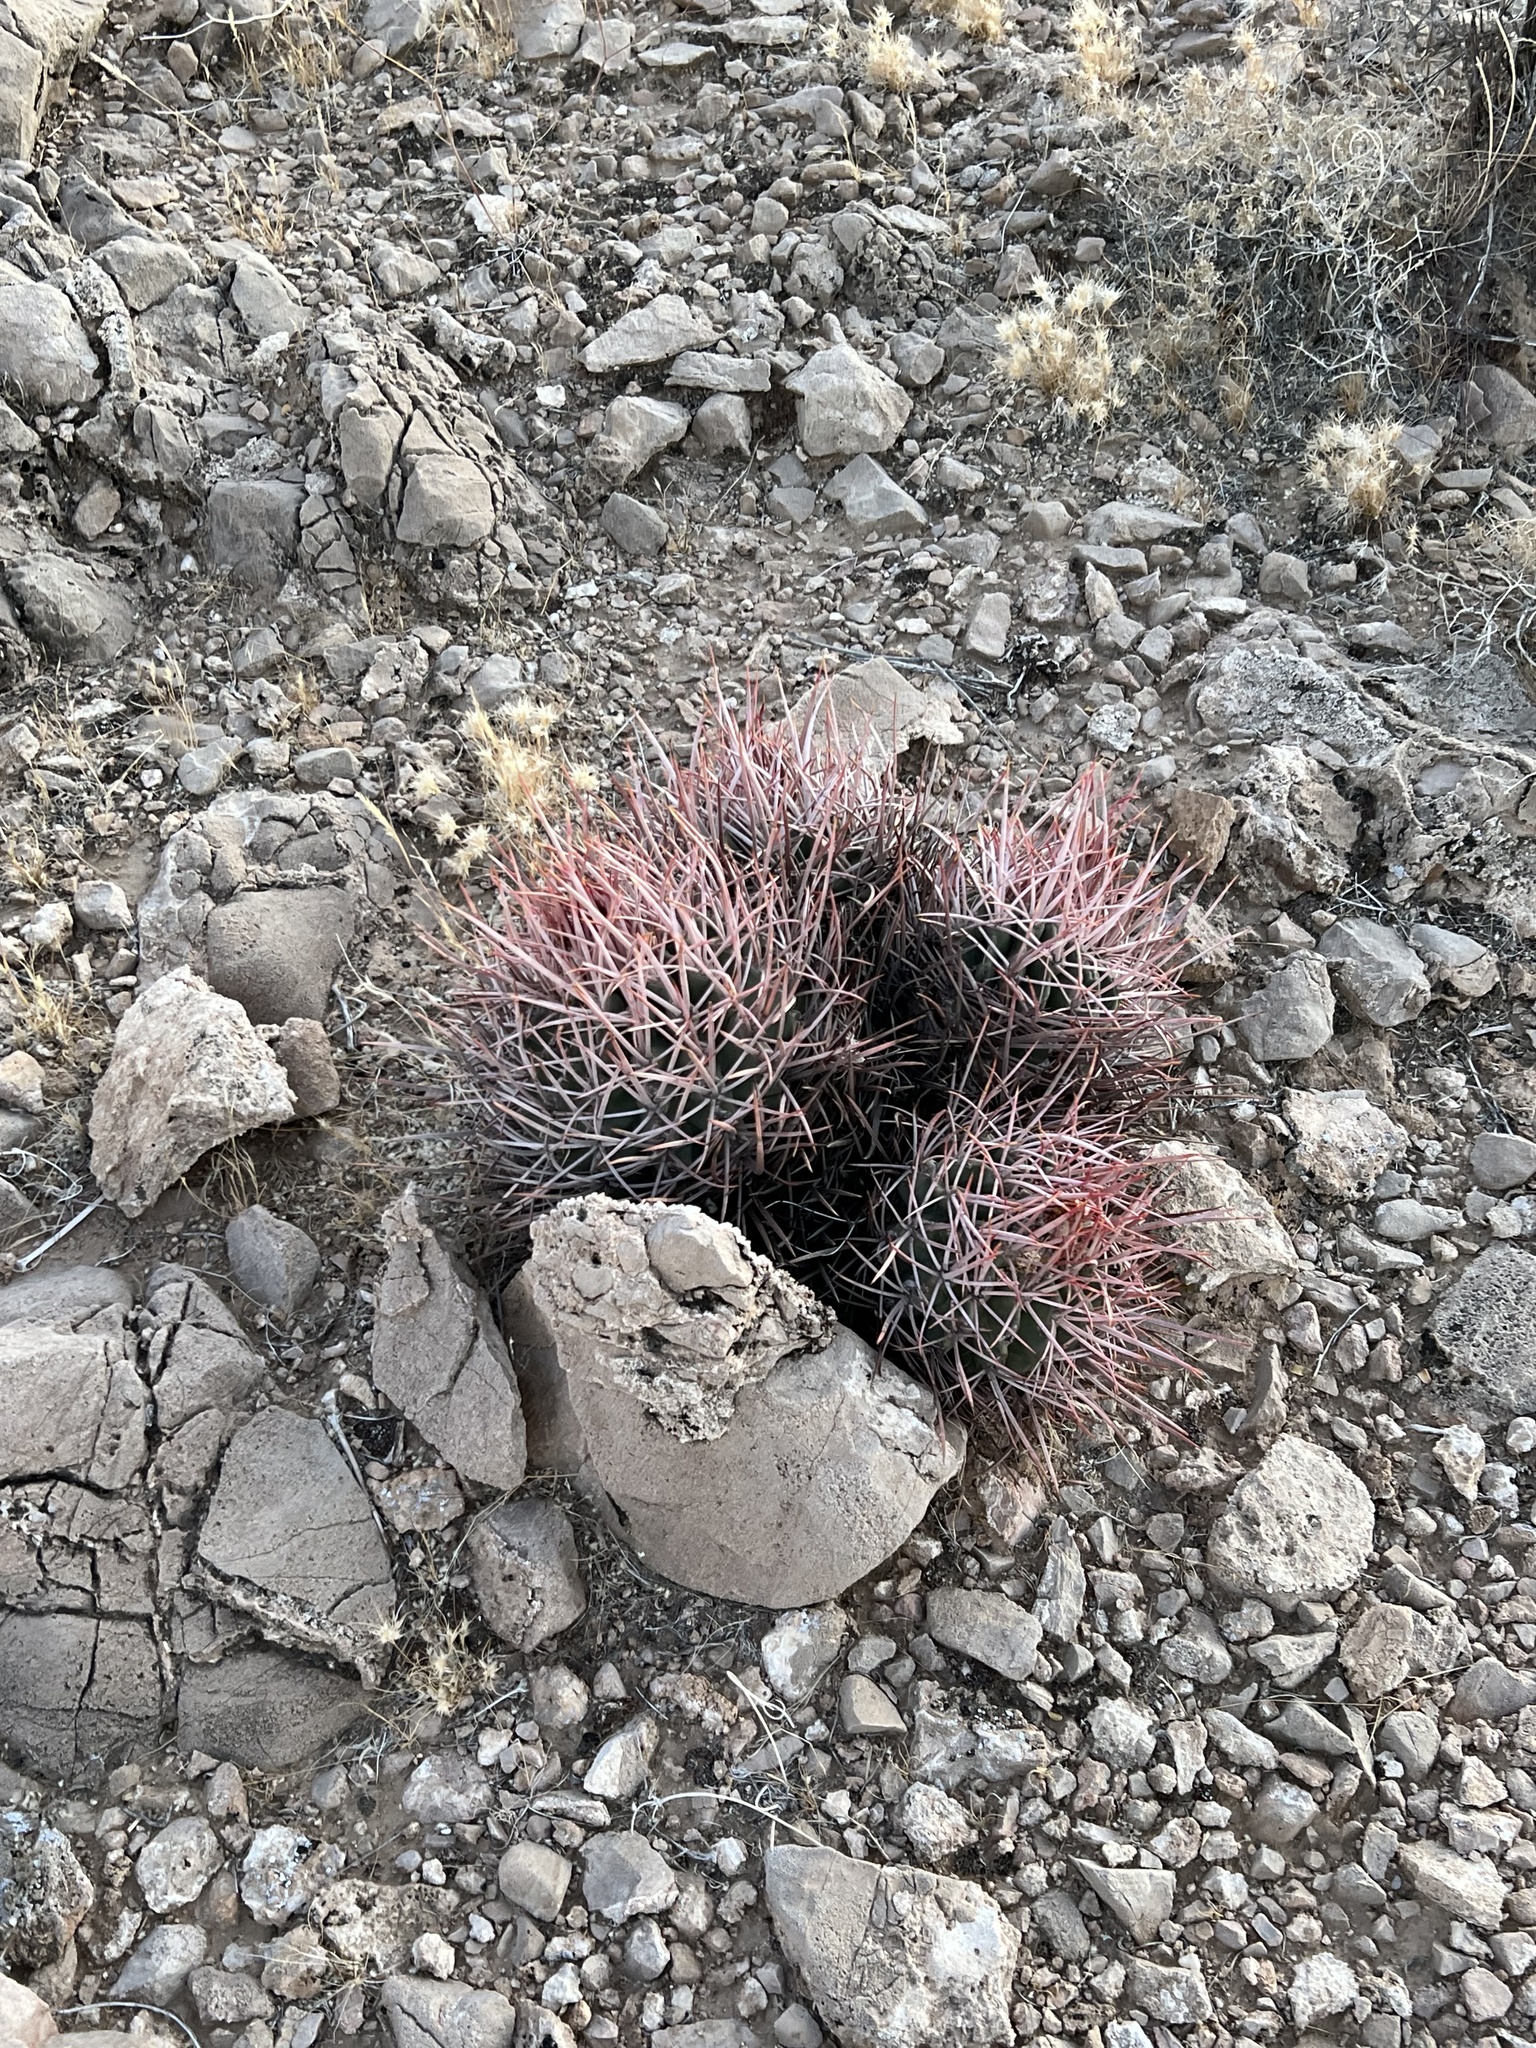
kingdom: Plantae
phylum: Tracheophyta
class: Magnoliopsida
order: Caryophyllales
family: Cactaceae
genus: Echinocactus
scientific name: Echinocactus polycephalus
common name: Cottontop cactus
